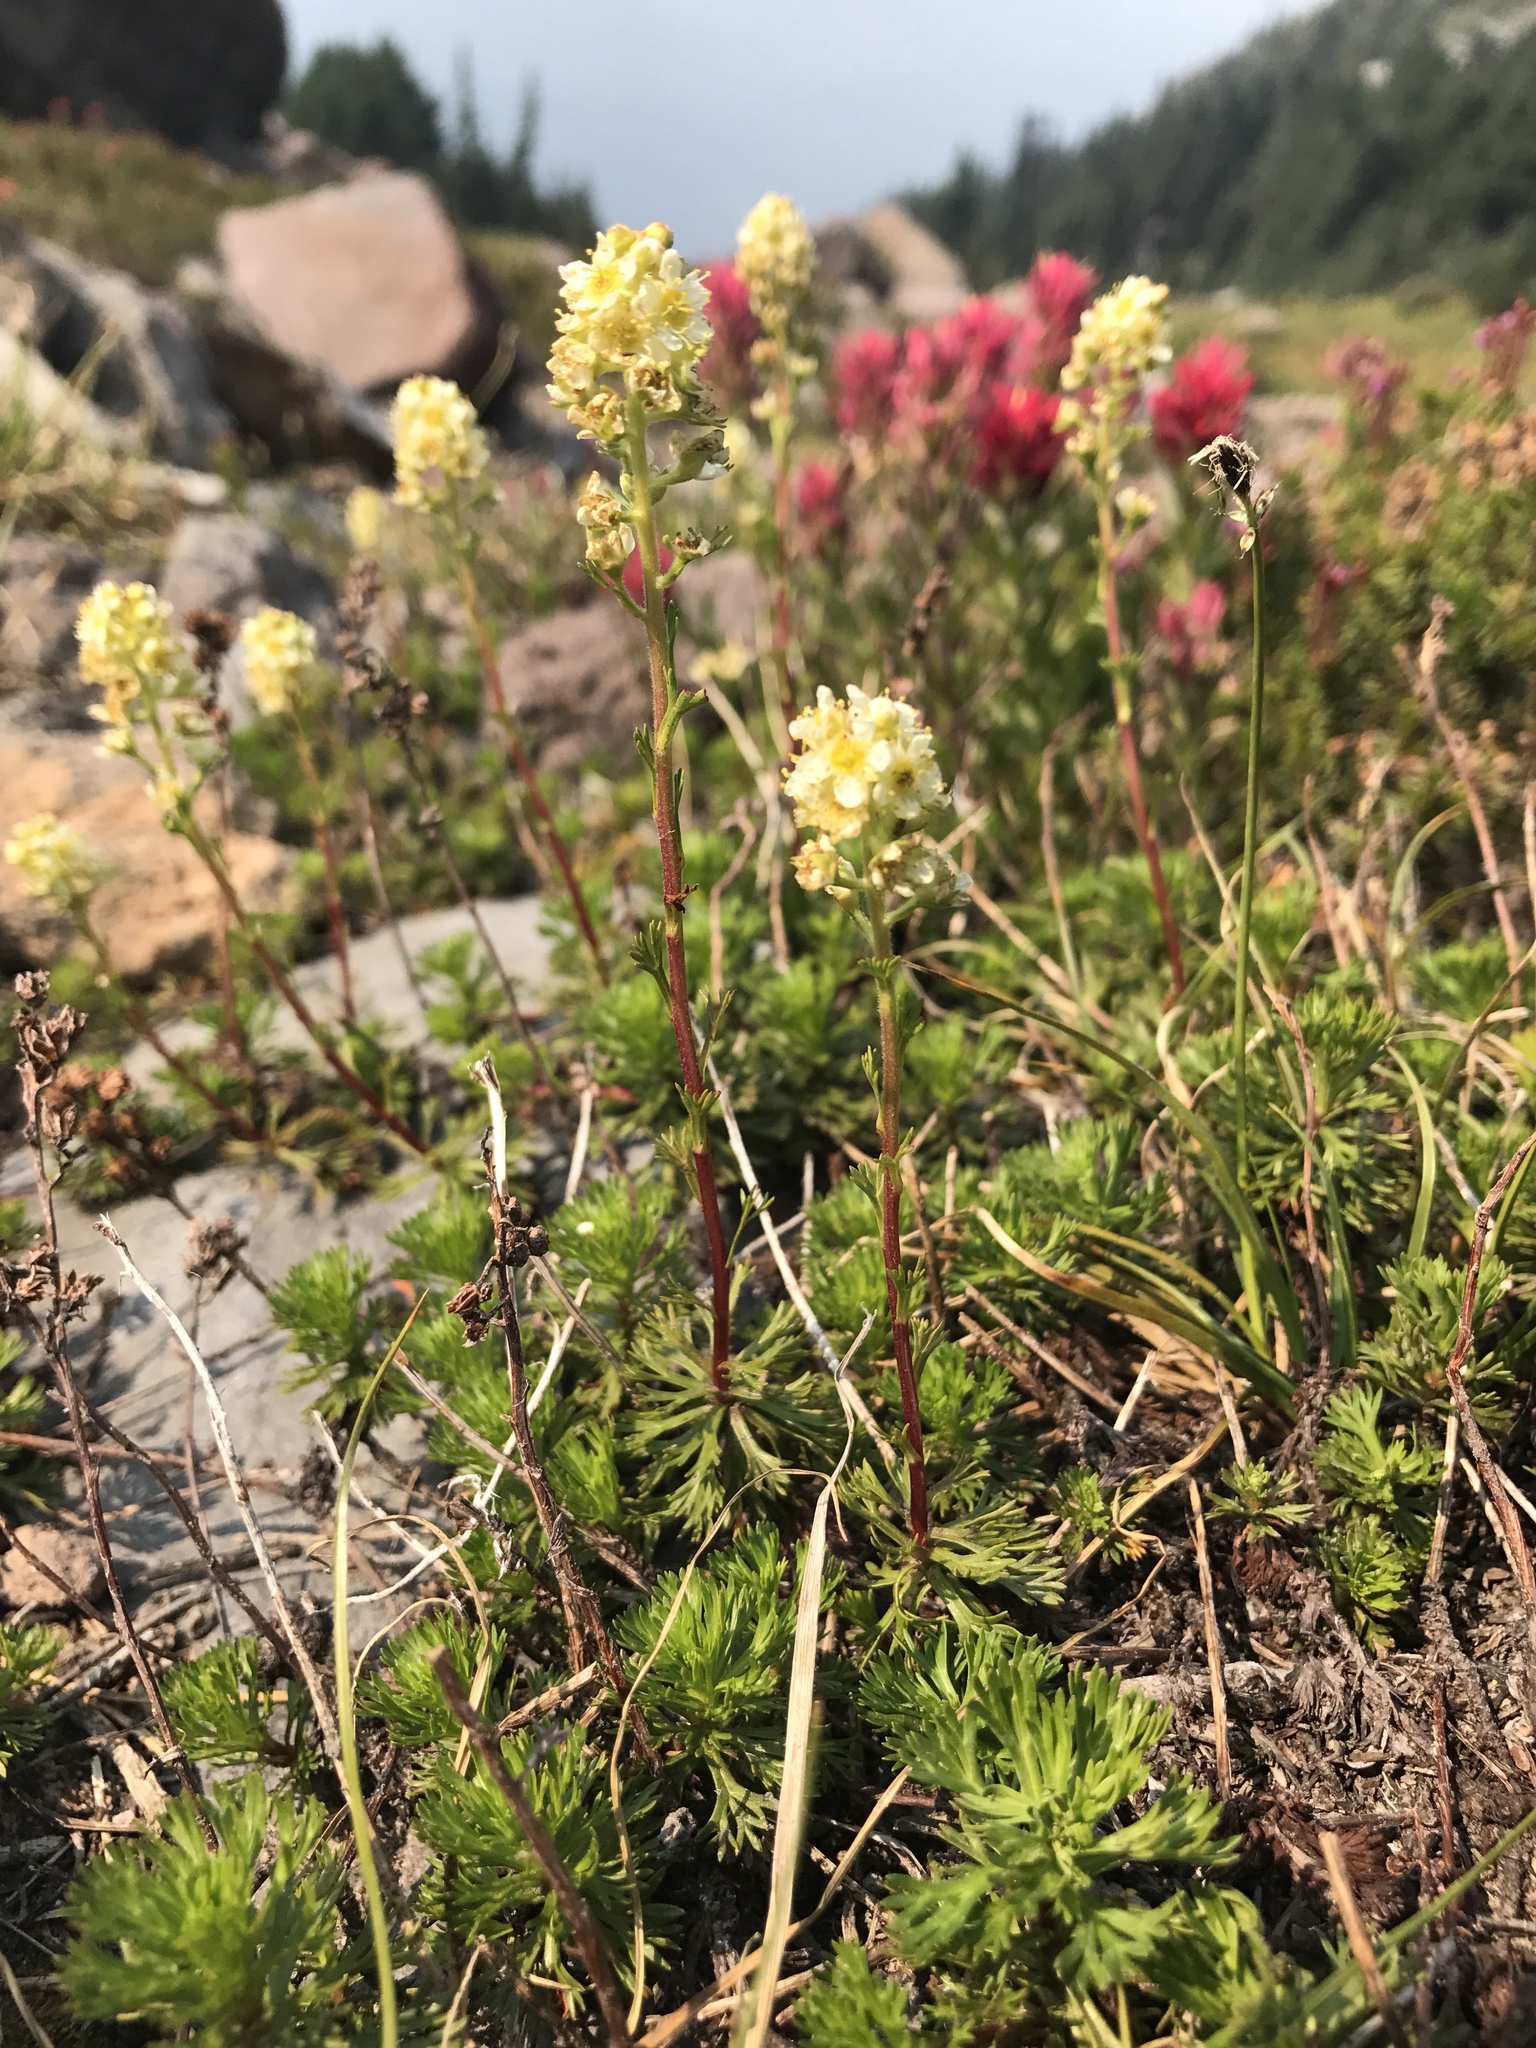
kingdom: Plantae
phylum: Tracheophyta
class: Magnoliopsida
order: Rosales
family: Rosaceae
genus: Luetkea
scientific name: Luetkea pectinata
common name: Partridgefoot
